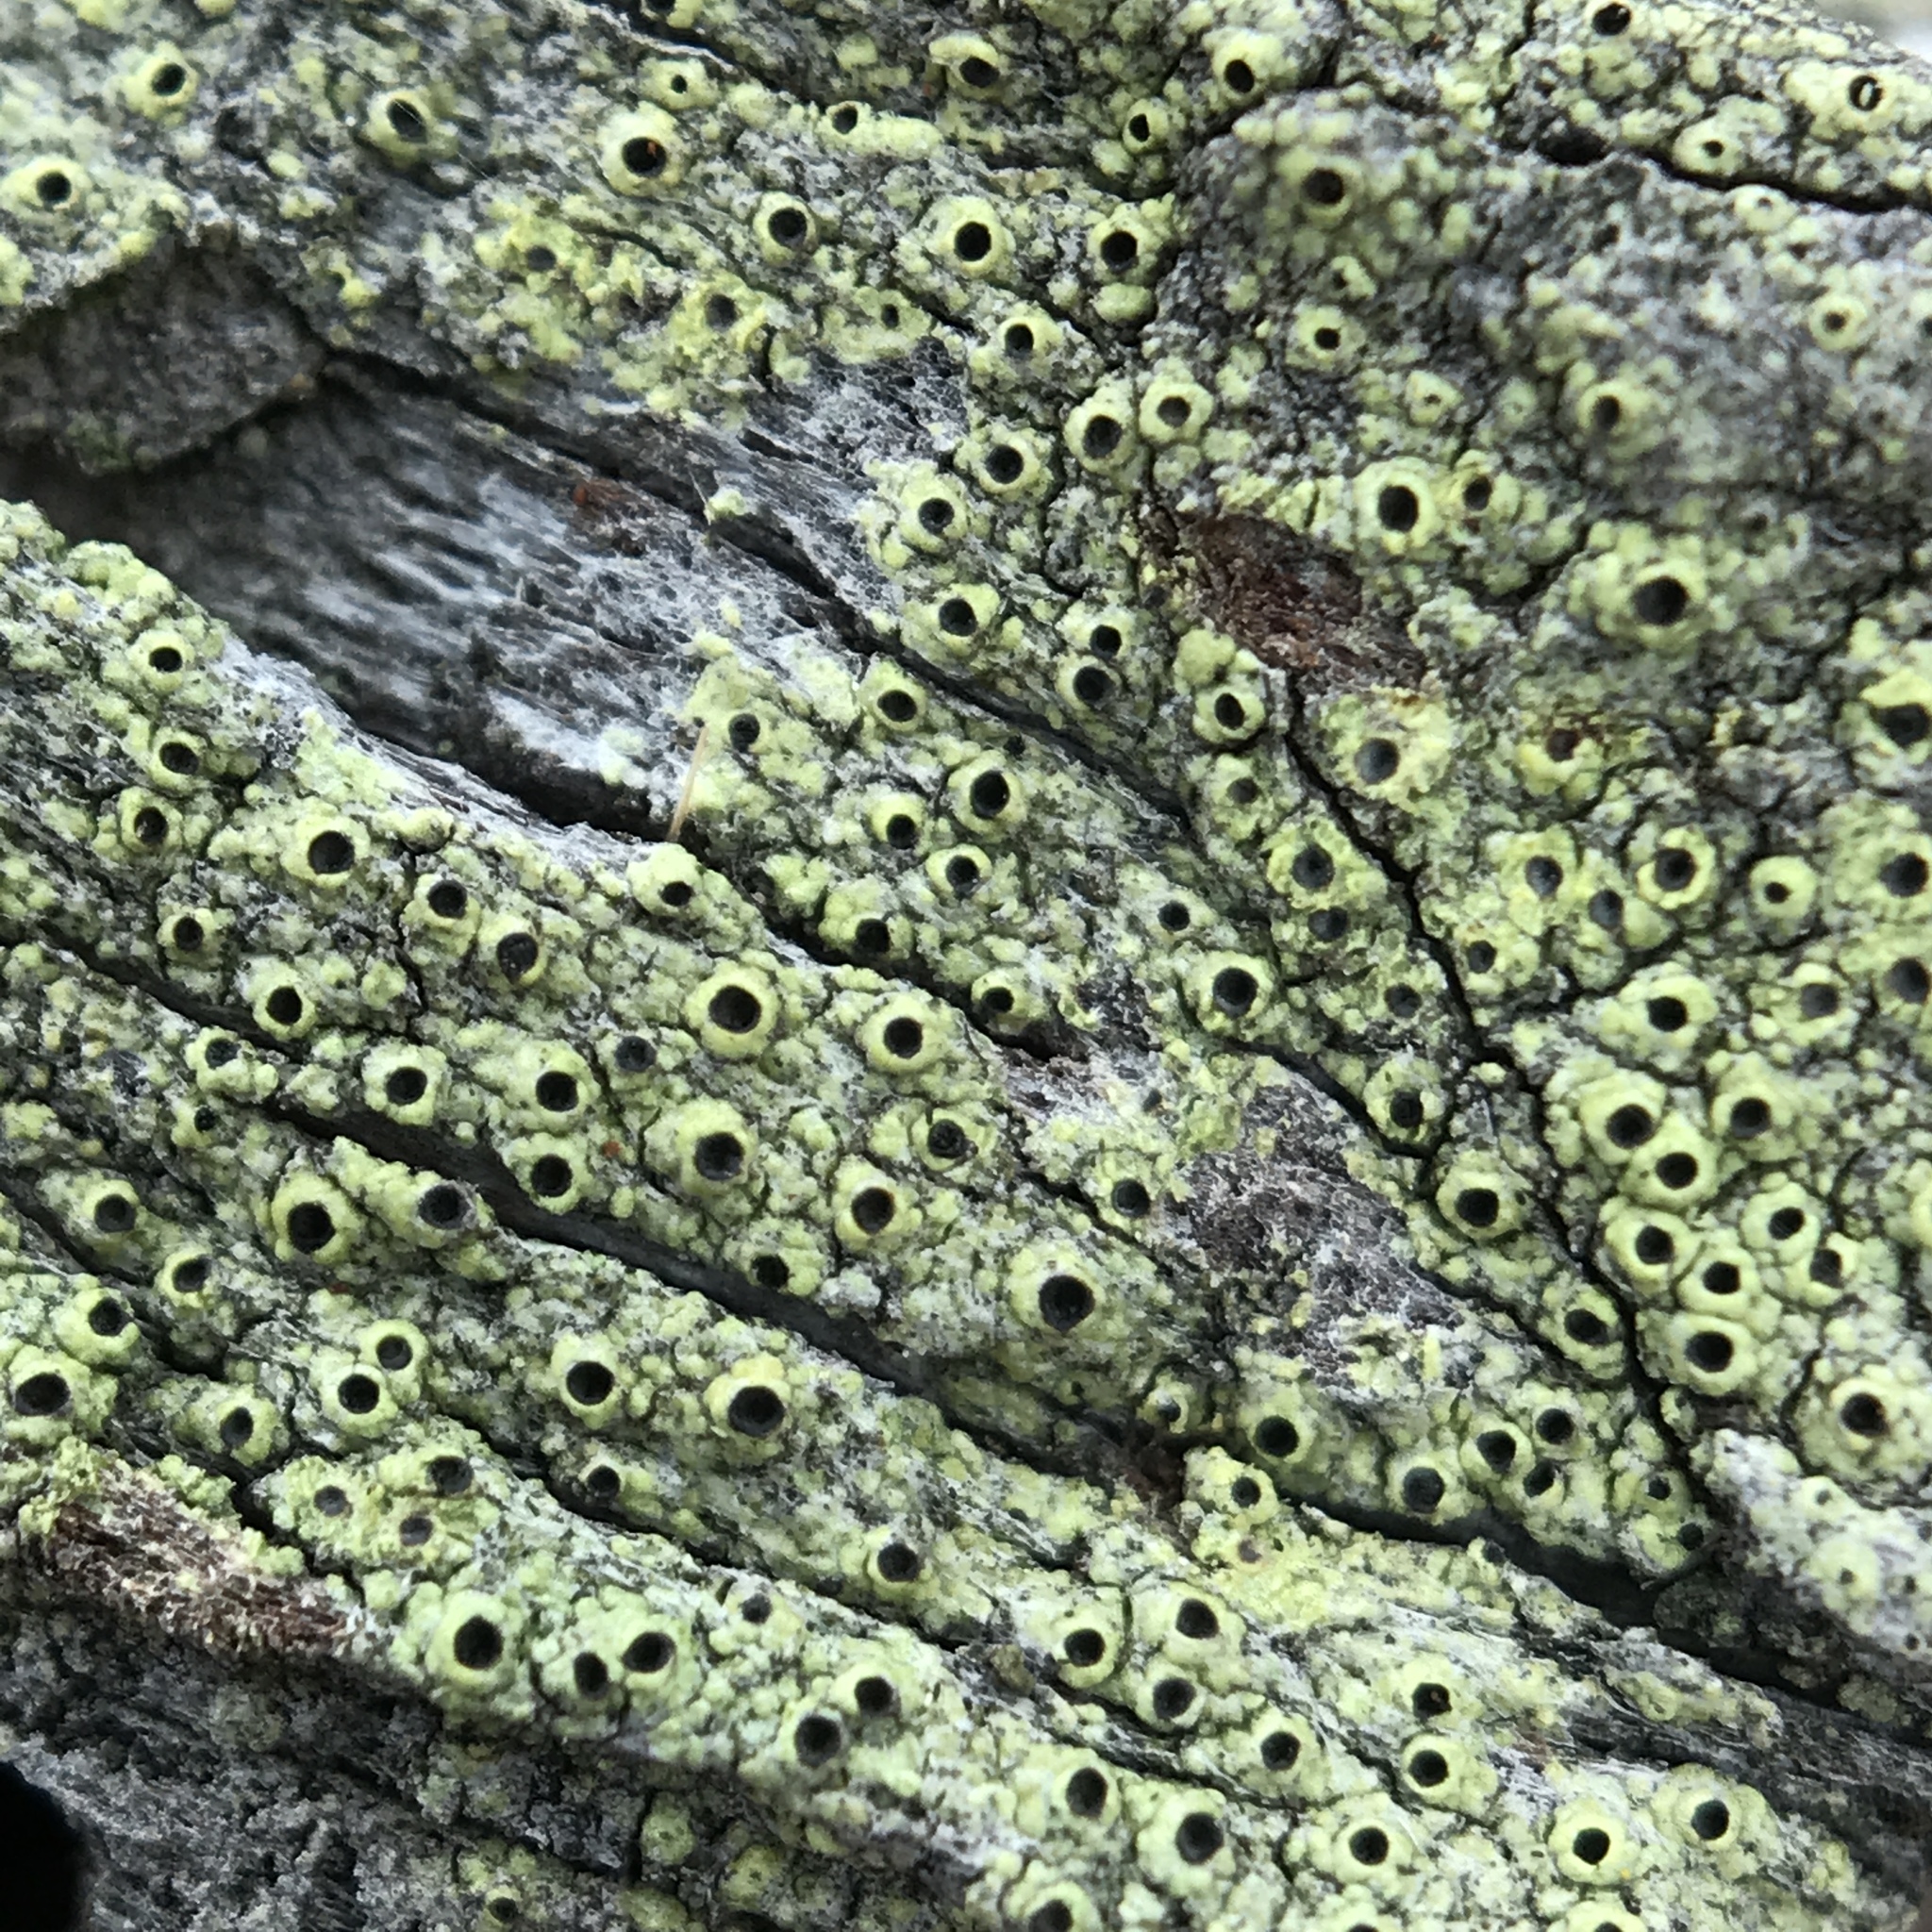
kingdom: Fungi
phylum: Ascomycota
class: Lecanoromycetes
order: Caliciales
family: Caliciaceae
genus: Calicium
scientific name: Calicium tigillare
